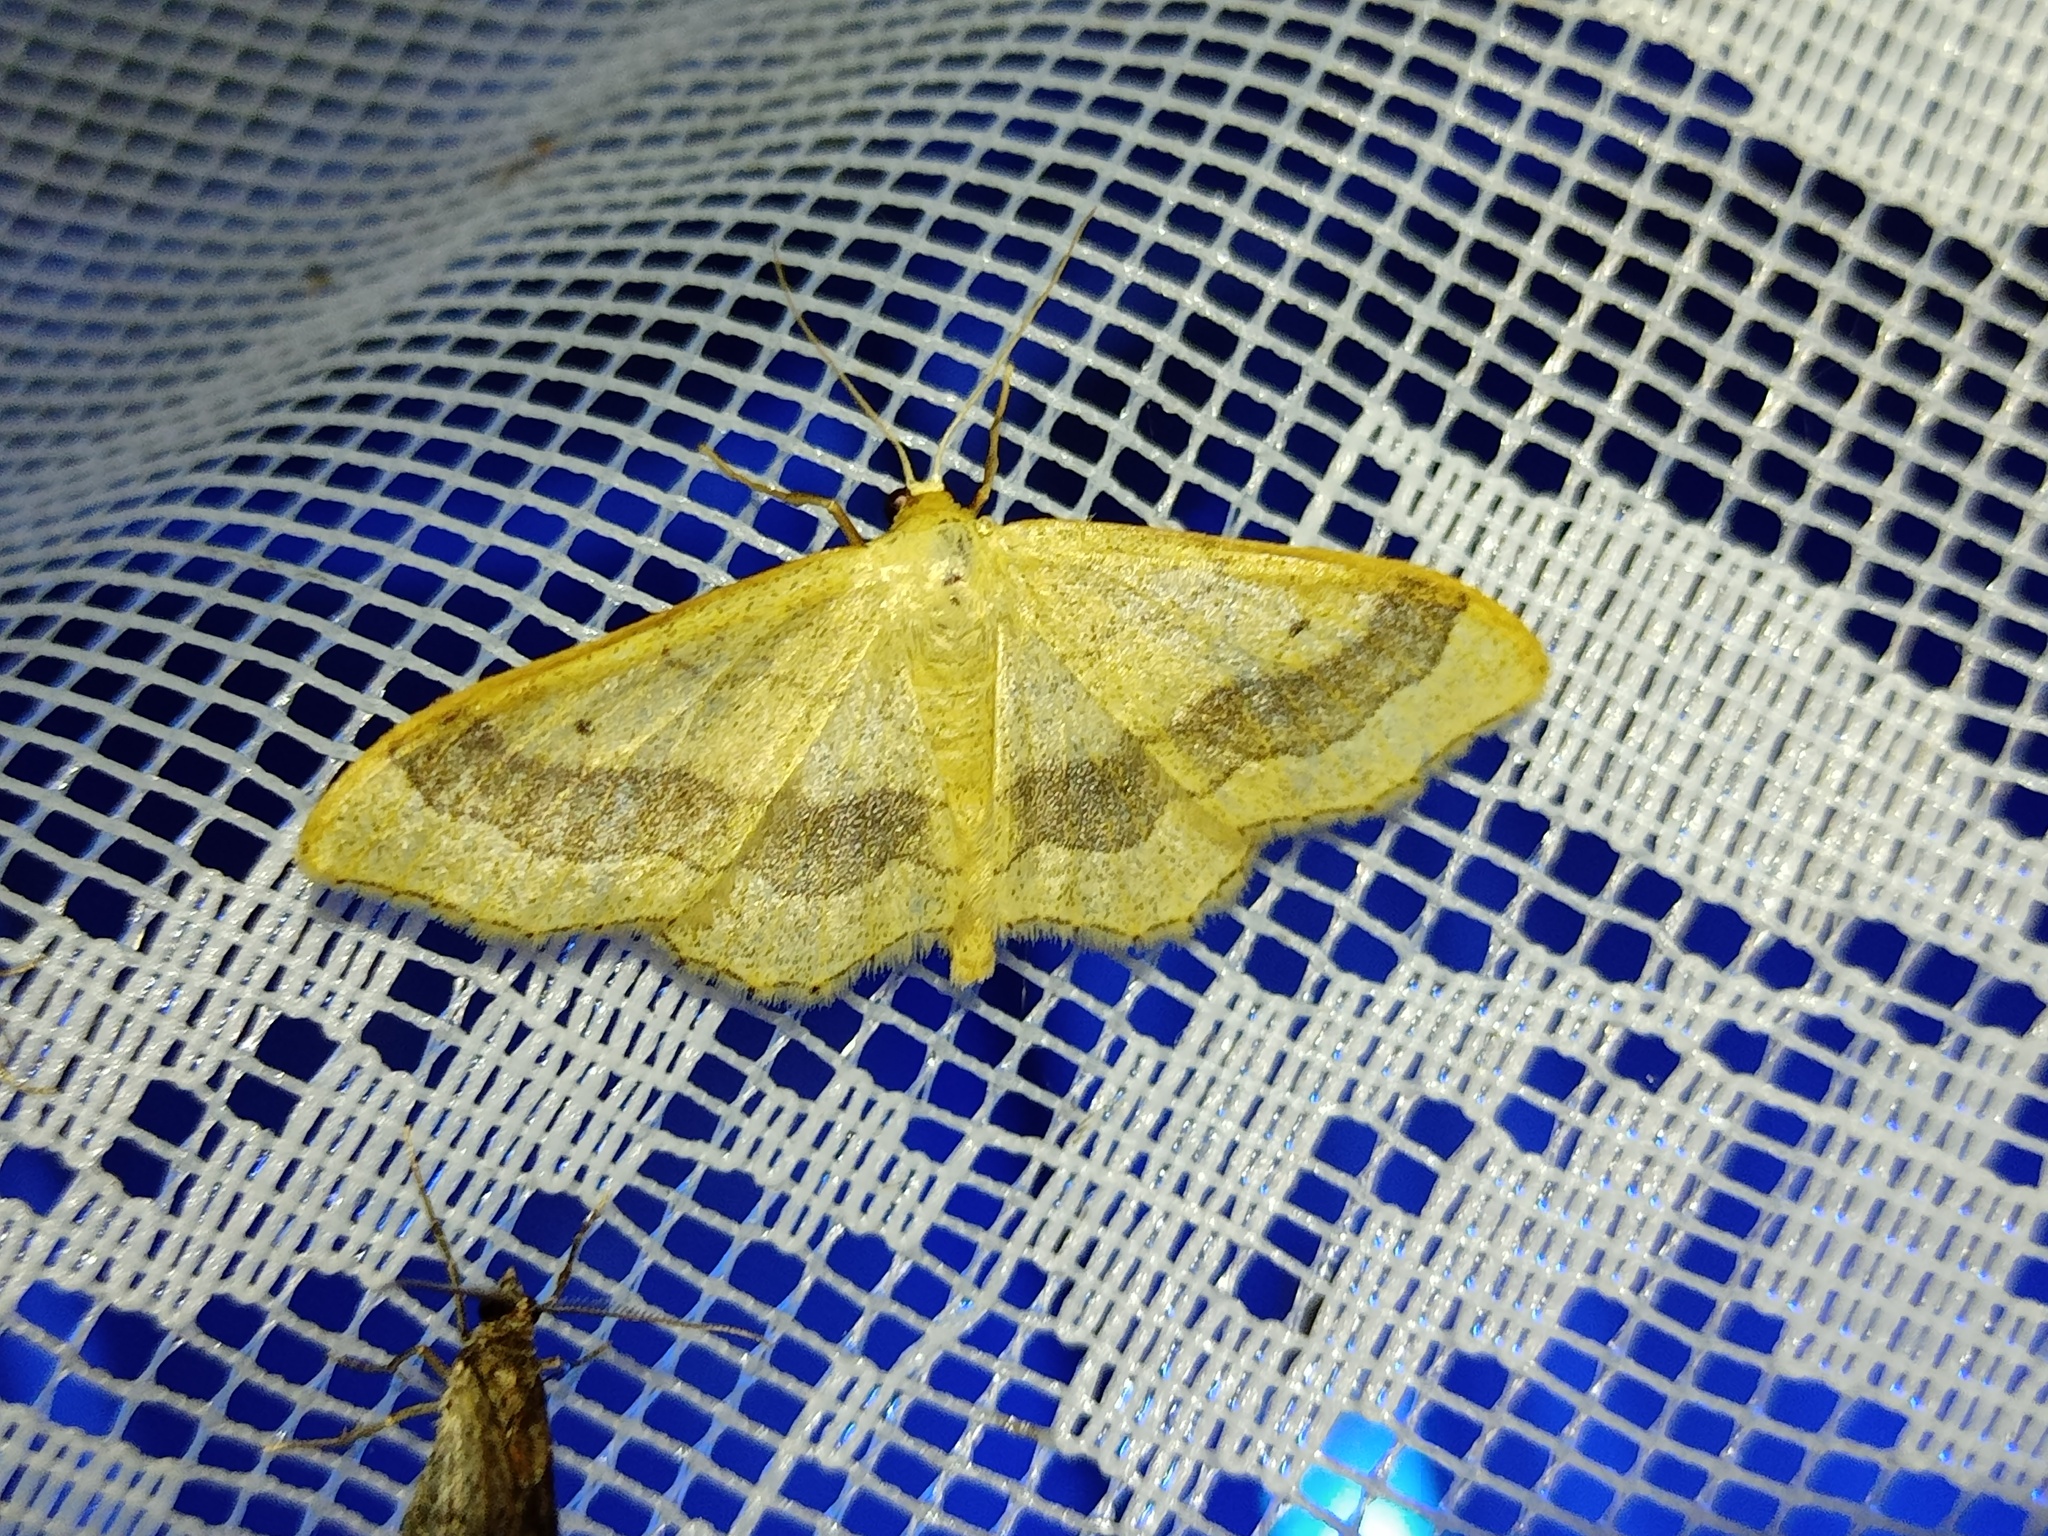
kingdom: Animalia
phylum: Arthropoda
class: Insecta
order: Lepidoptera
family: Geometridae
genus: Idaea
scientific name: Idaea aversata
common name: Riband wave
